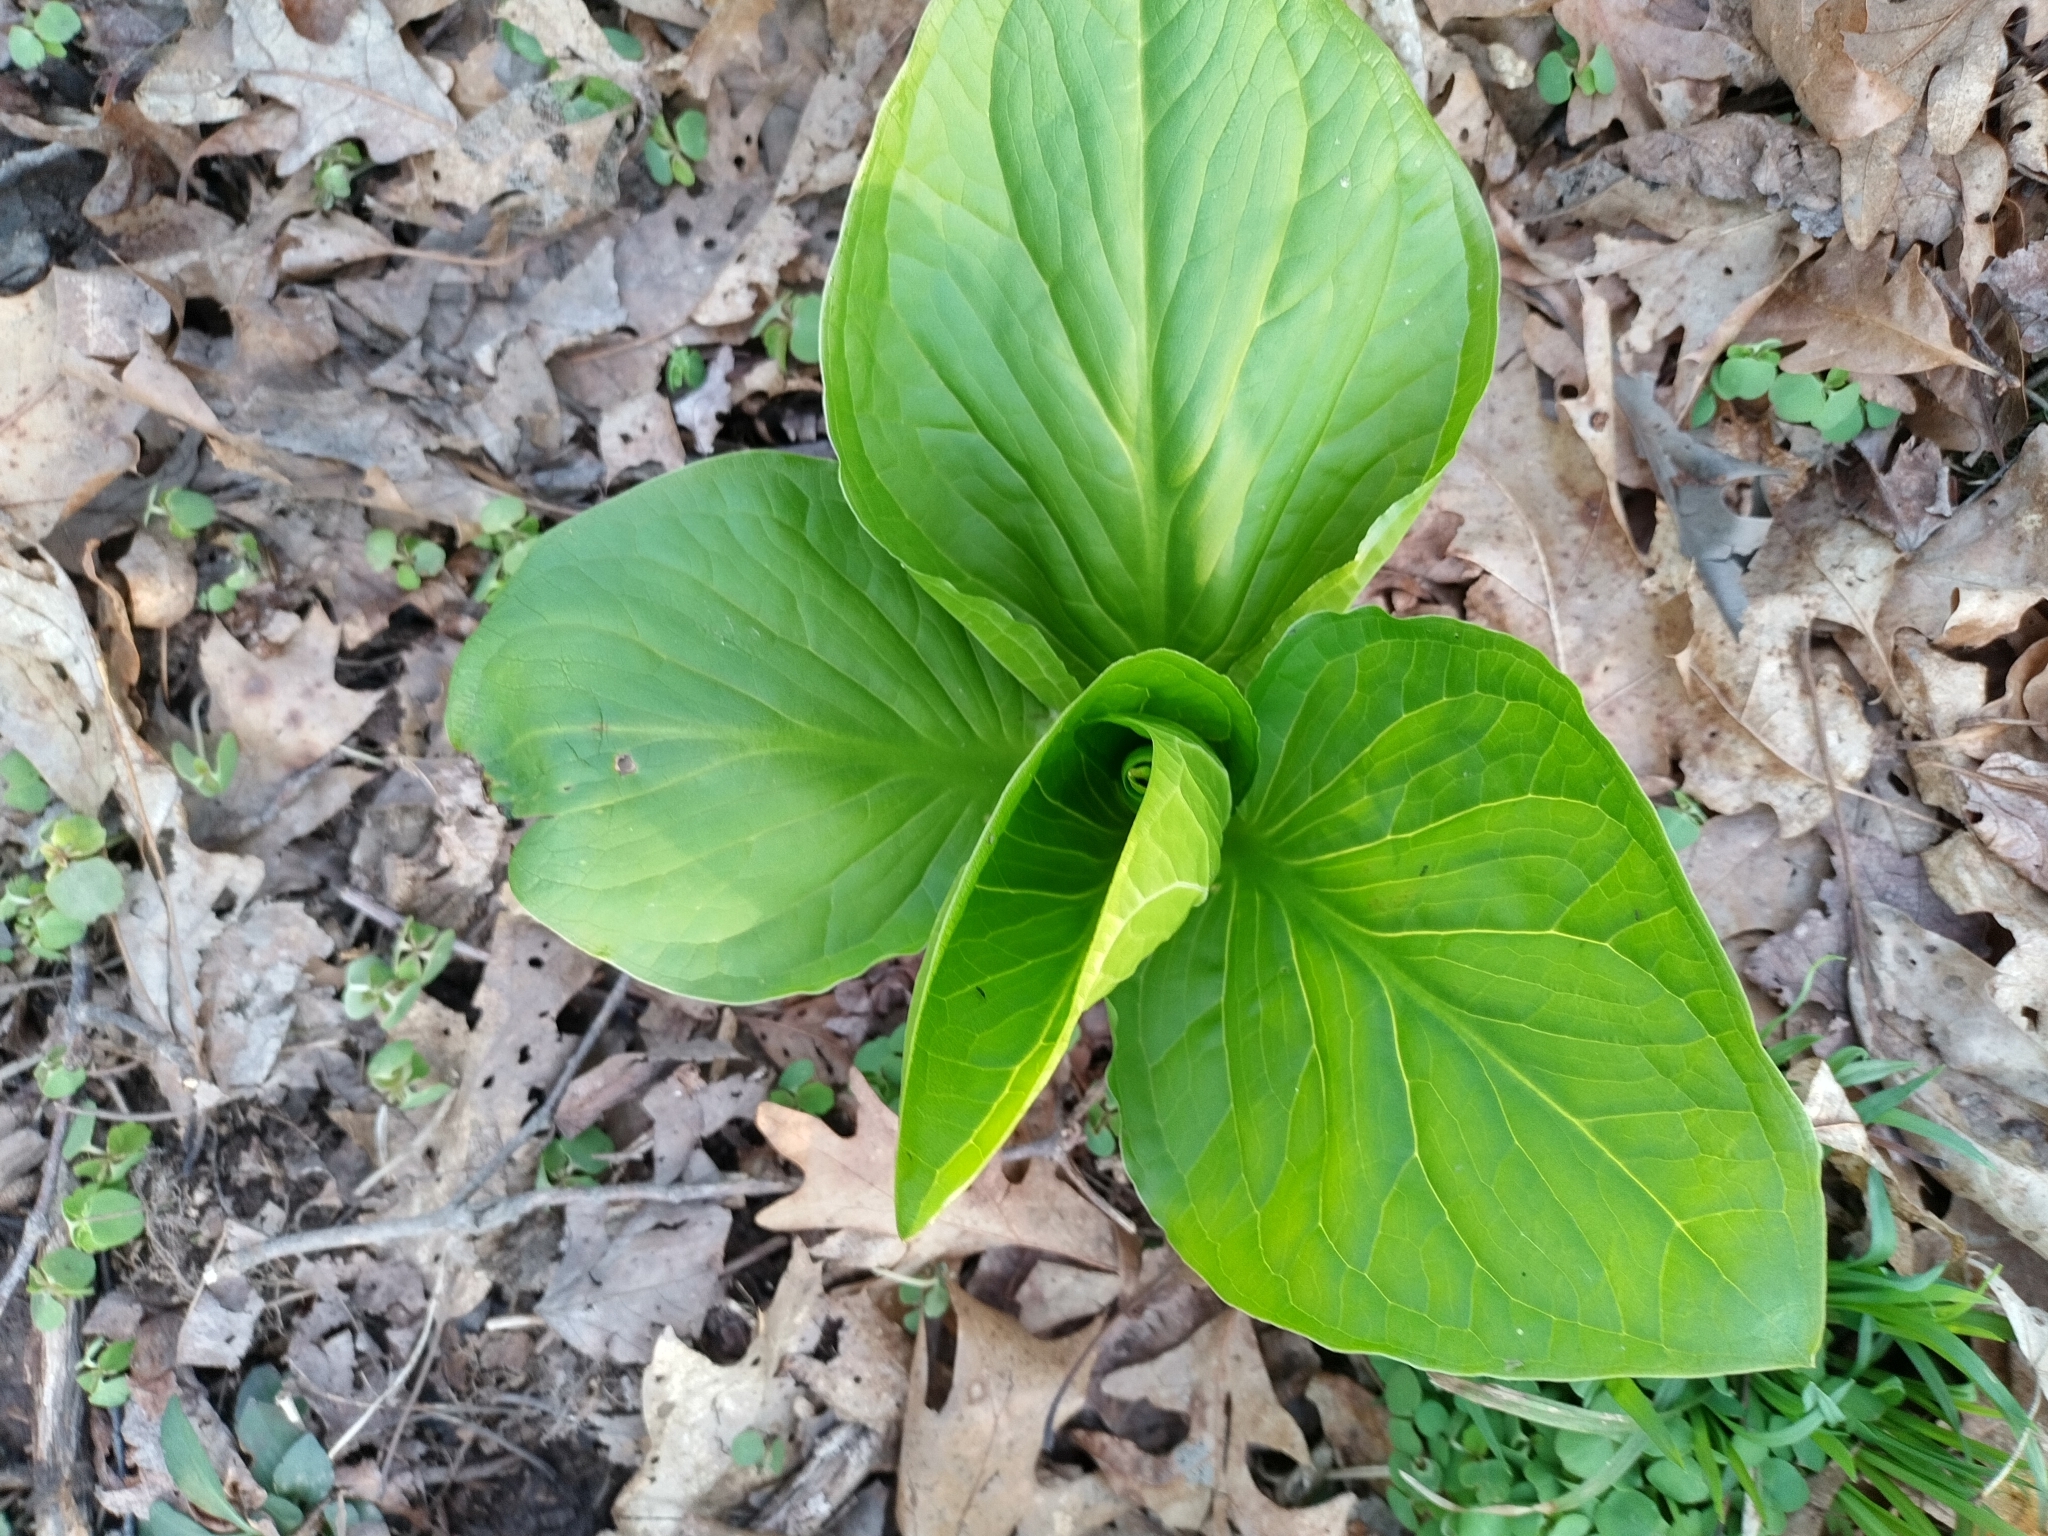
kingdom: Plantae
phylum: Tracheophyta
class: Liliopsida
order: Alismatales
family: Araceae
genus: Symplocarpus
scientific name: Symplocarpus foetidus
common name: Eastern skunk cabbage
